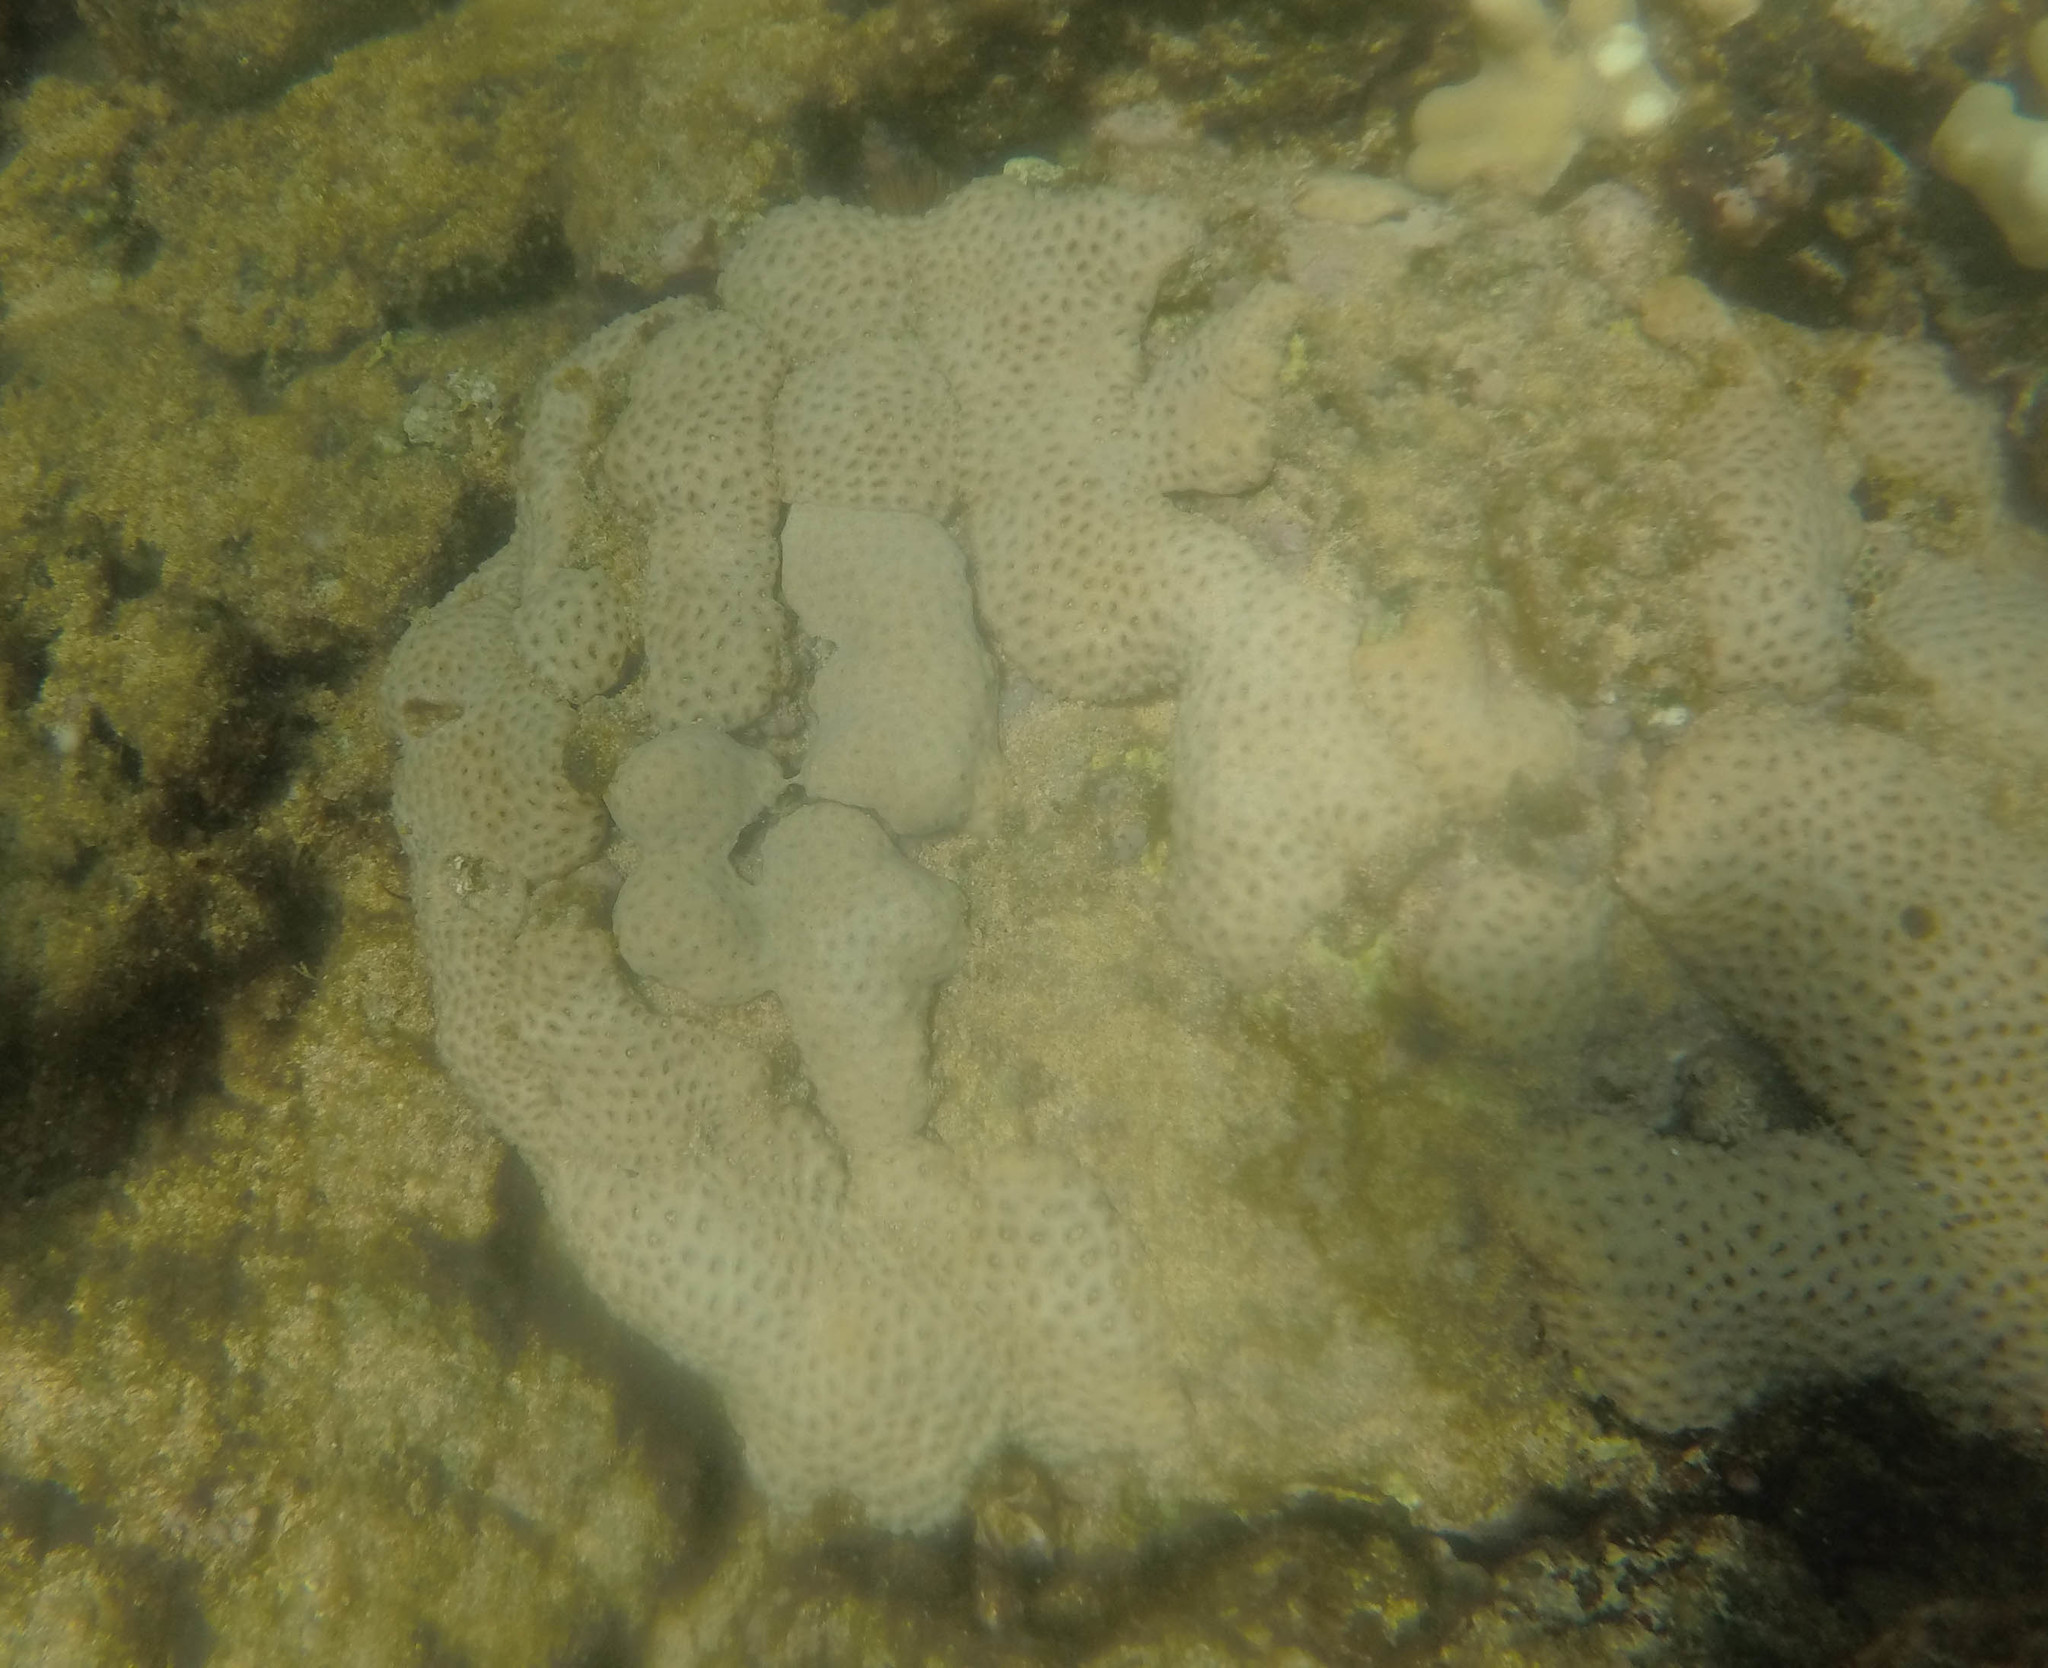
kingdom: Animalia
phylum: Cnidaria
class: Anthozoa
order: Zoantharia
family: Sphenopidae
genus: Palythoa
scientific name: Palythoa tuberculosa
